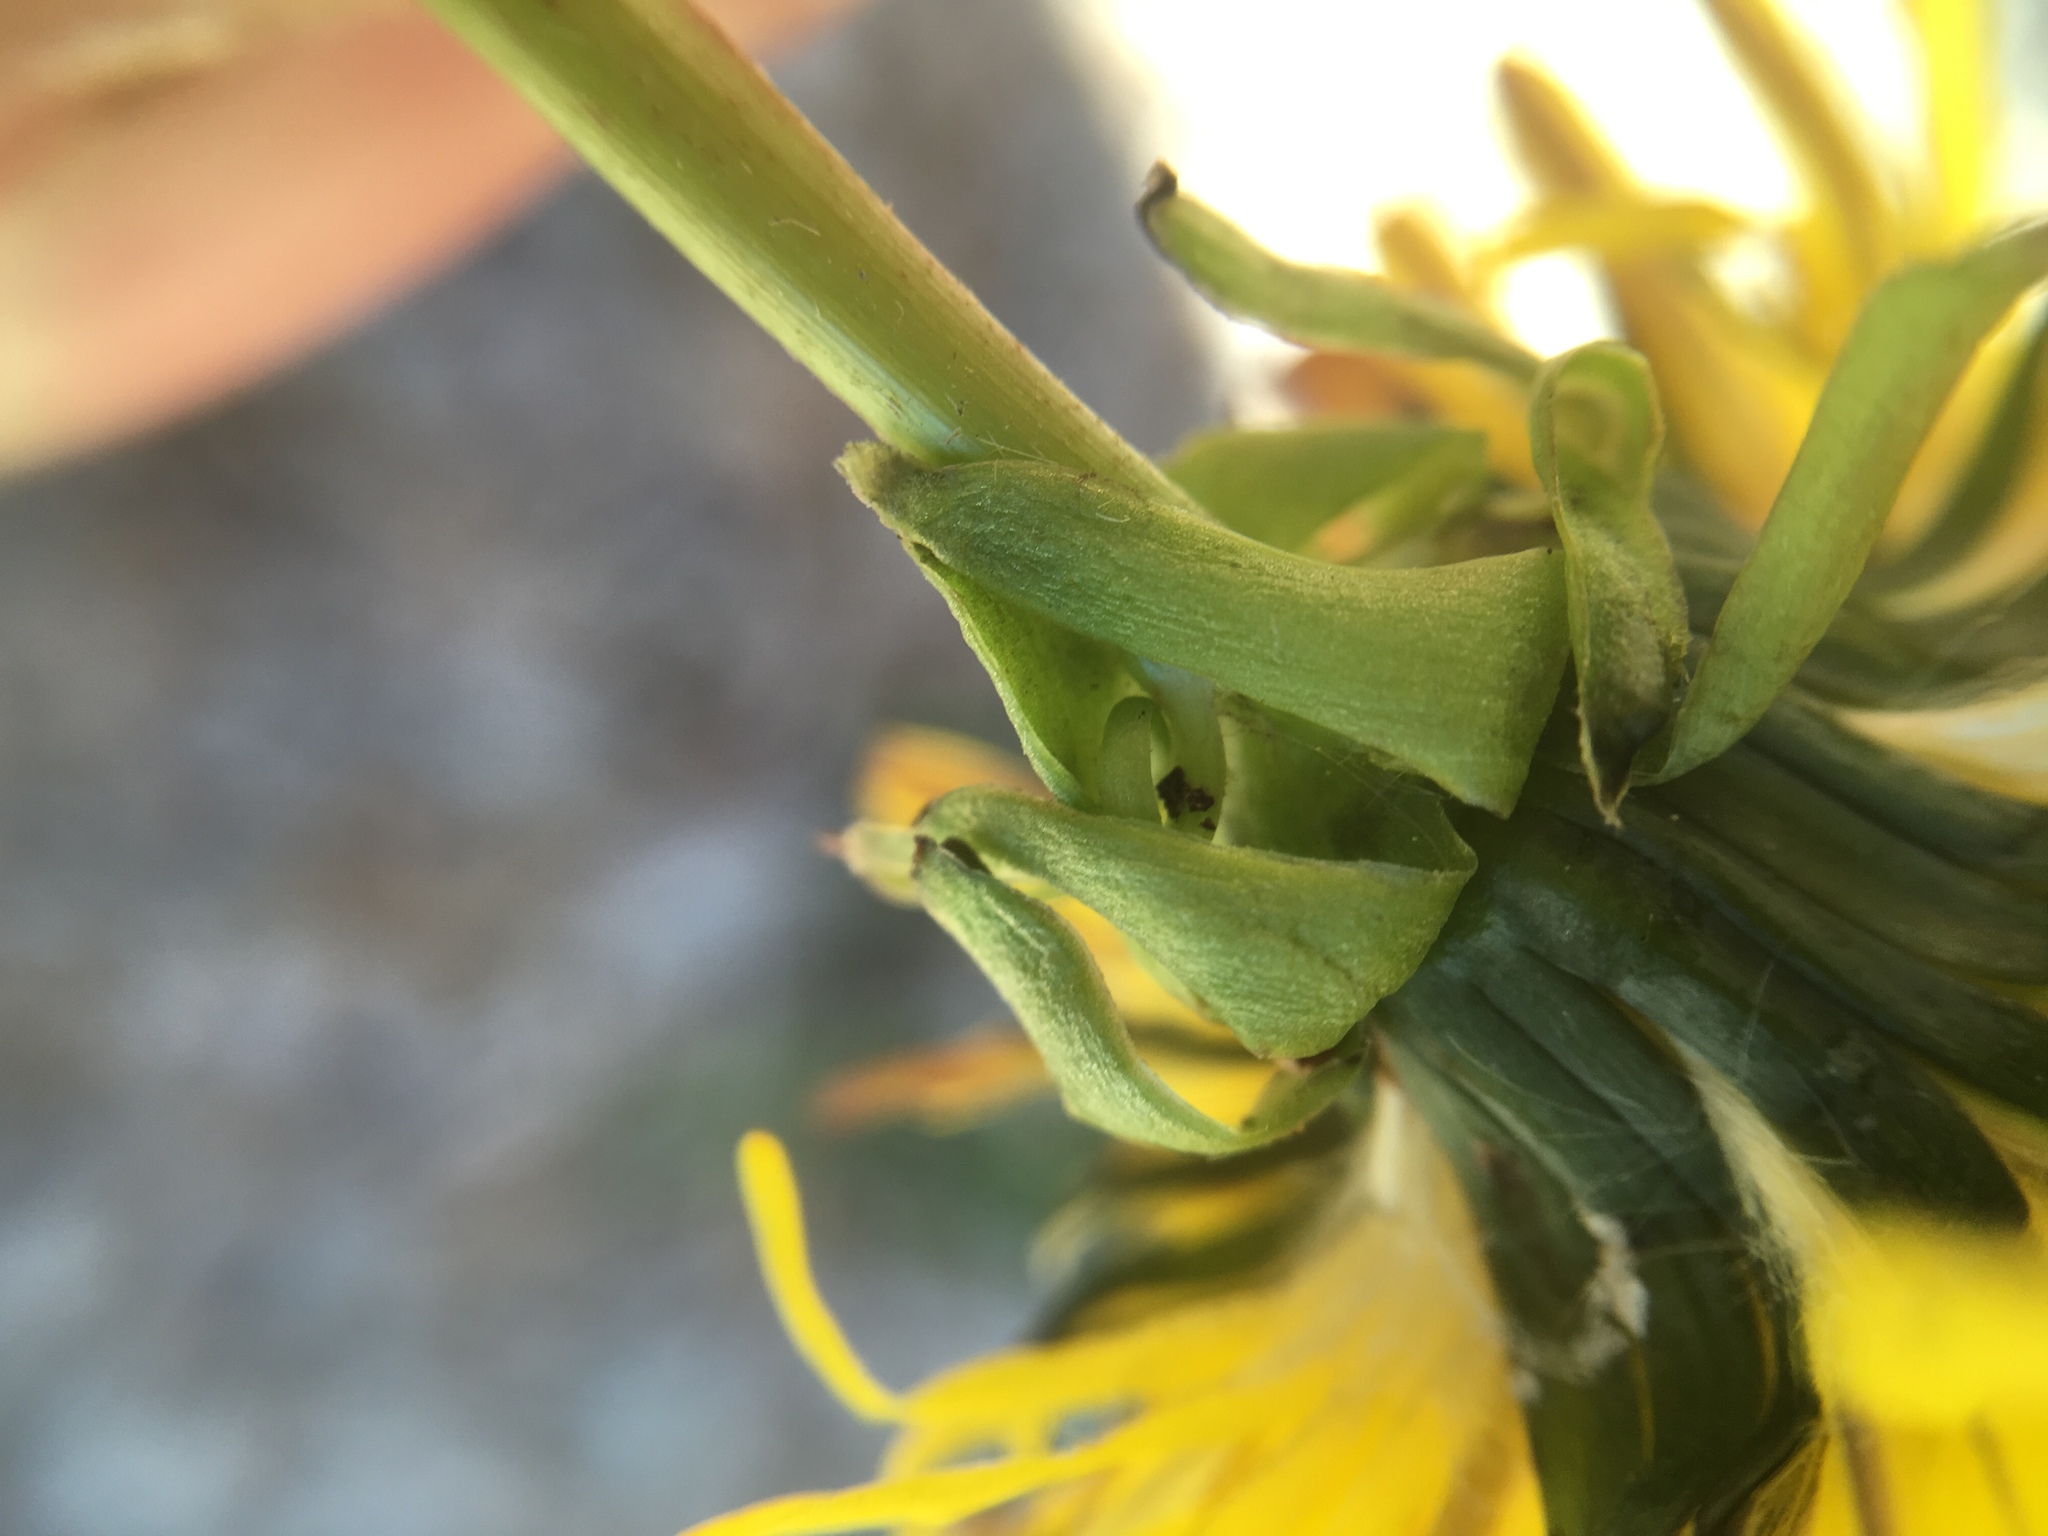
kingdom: Plantae
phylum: Tracheophyta
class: Magnoliopsida
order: Asterales
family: Asteraceae
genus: Taraxacum
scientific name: Taraxacum officinale
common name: Common dandelion
